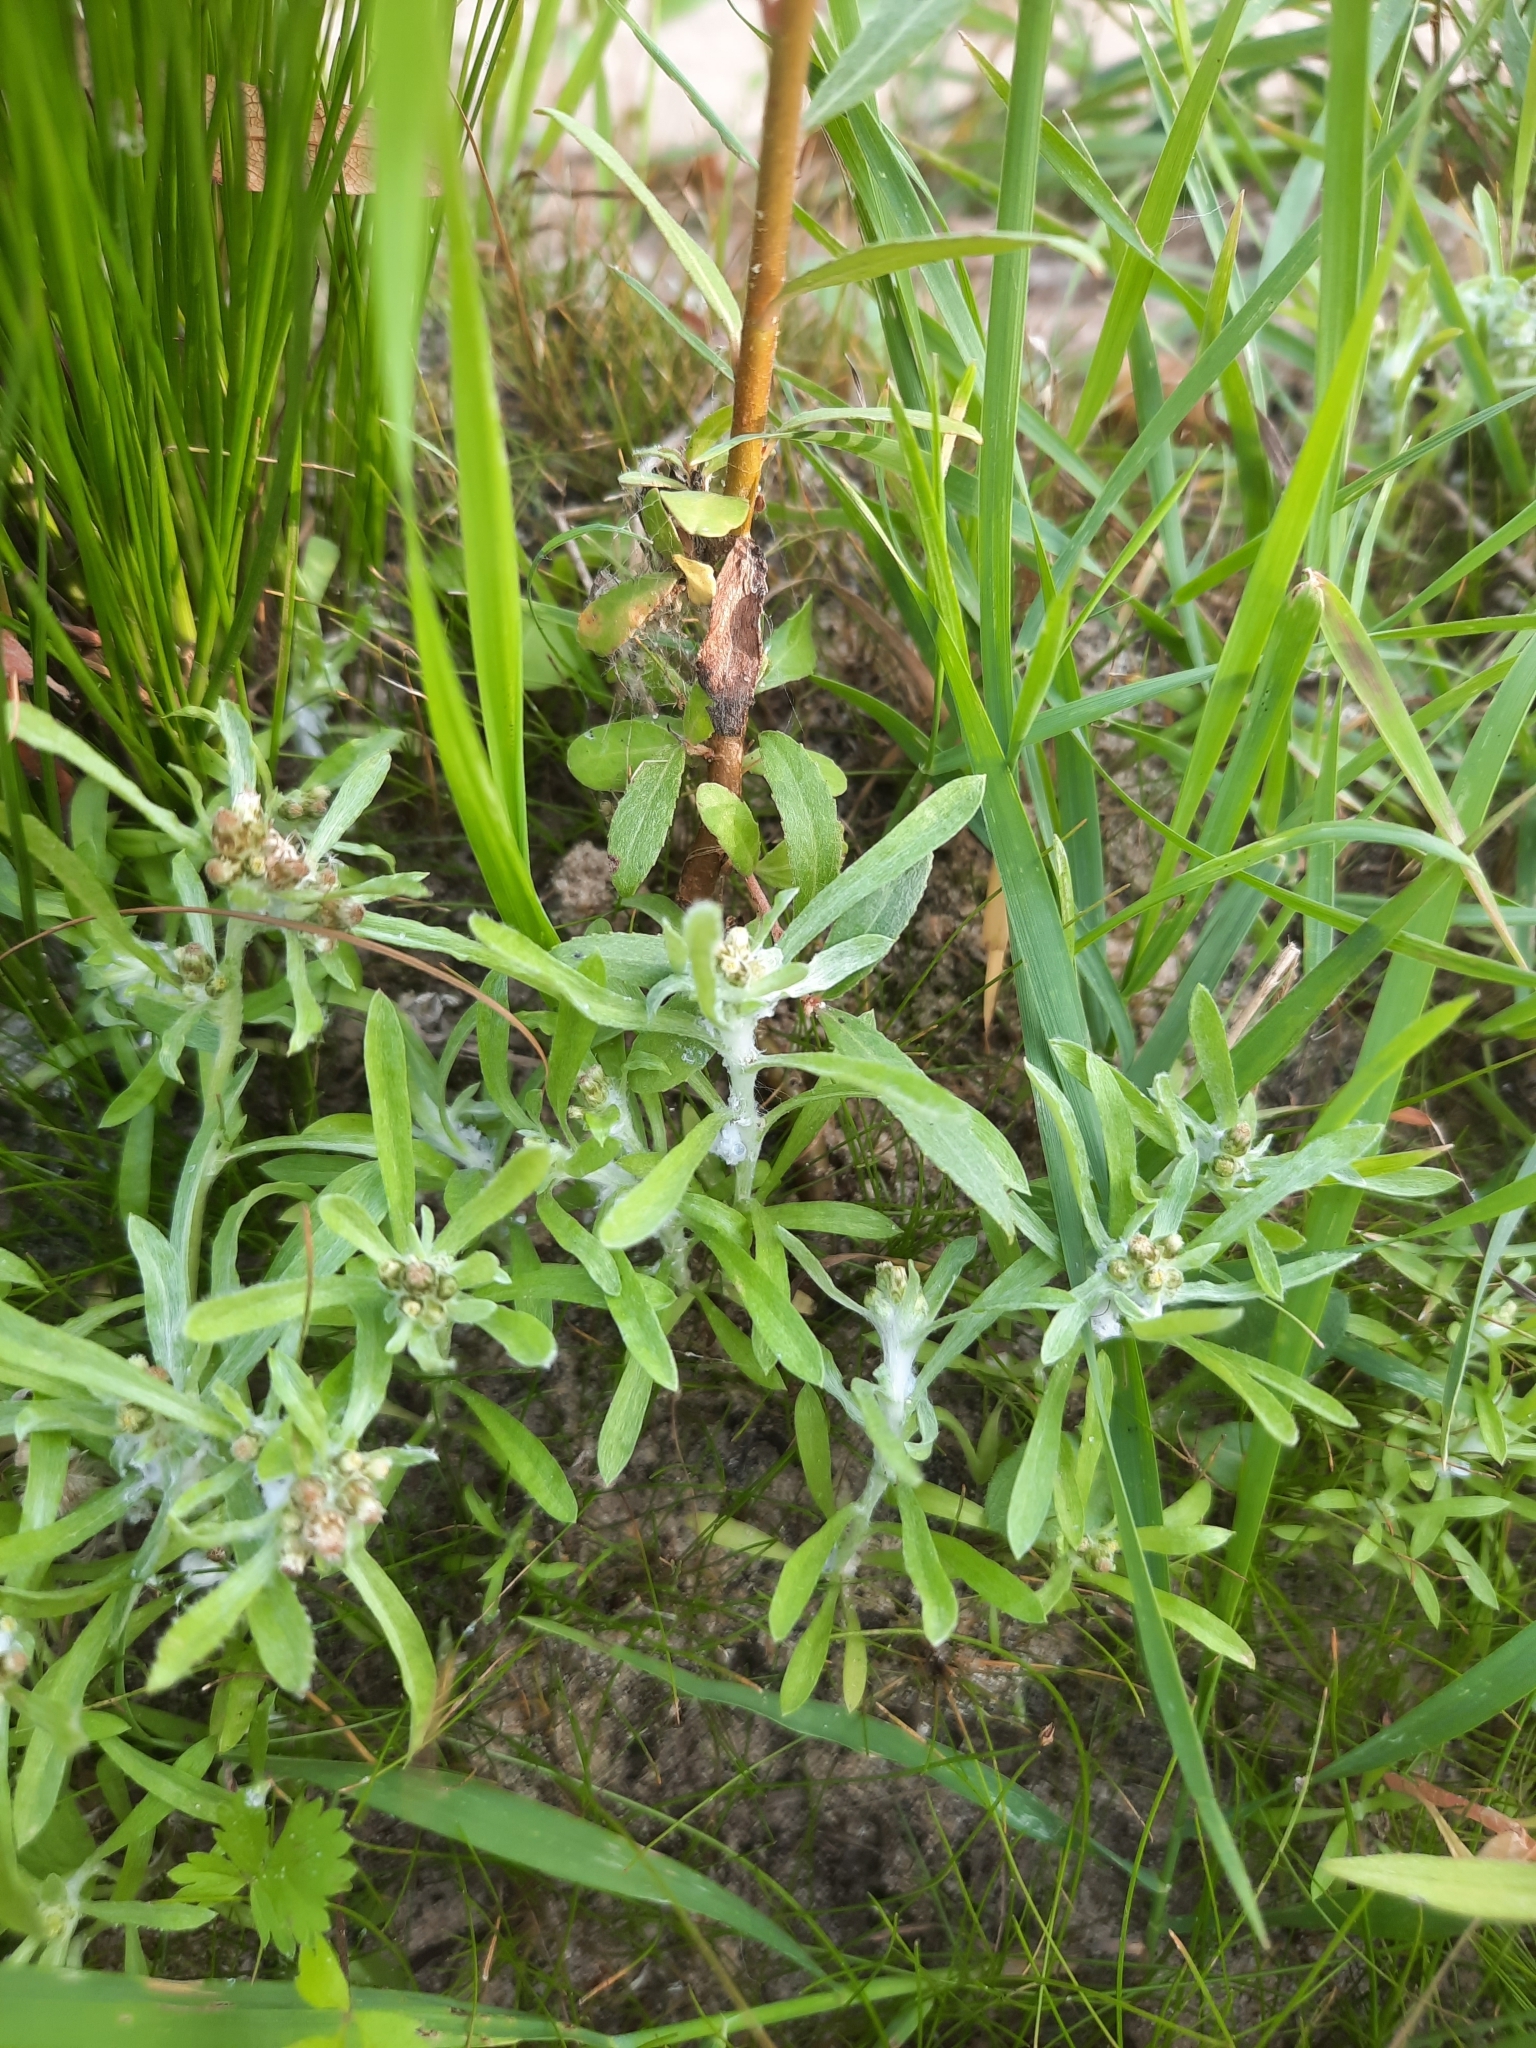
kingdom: Plantae
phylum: Tracheophyta
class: Magnoliopsida
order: Asterales
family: Asteraceae
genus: Gnaphalium
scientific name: Gnaphalium uliginosum
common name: Marsh cudweed
